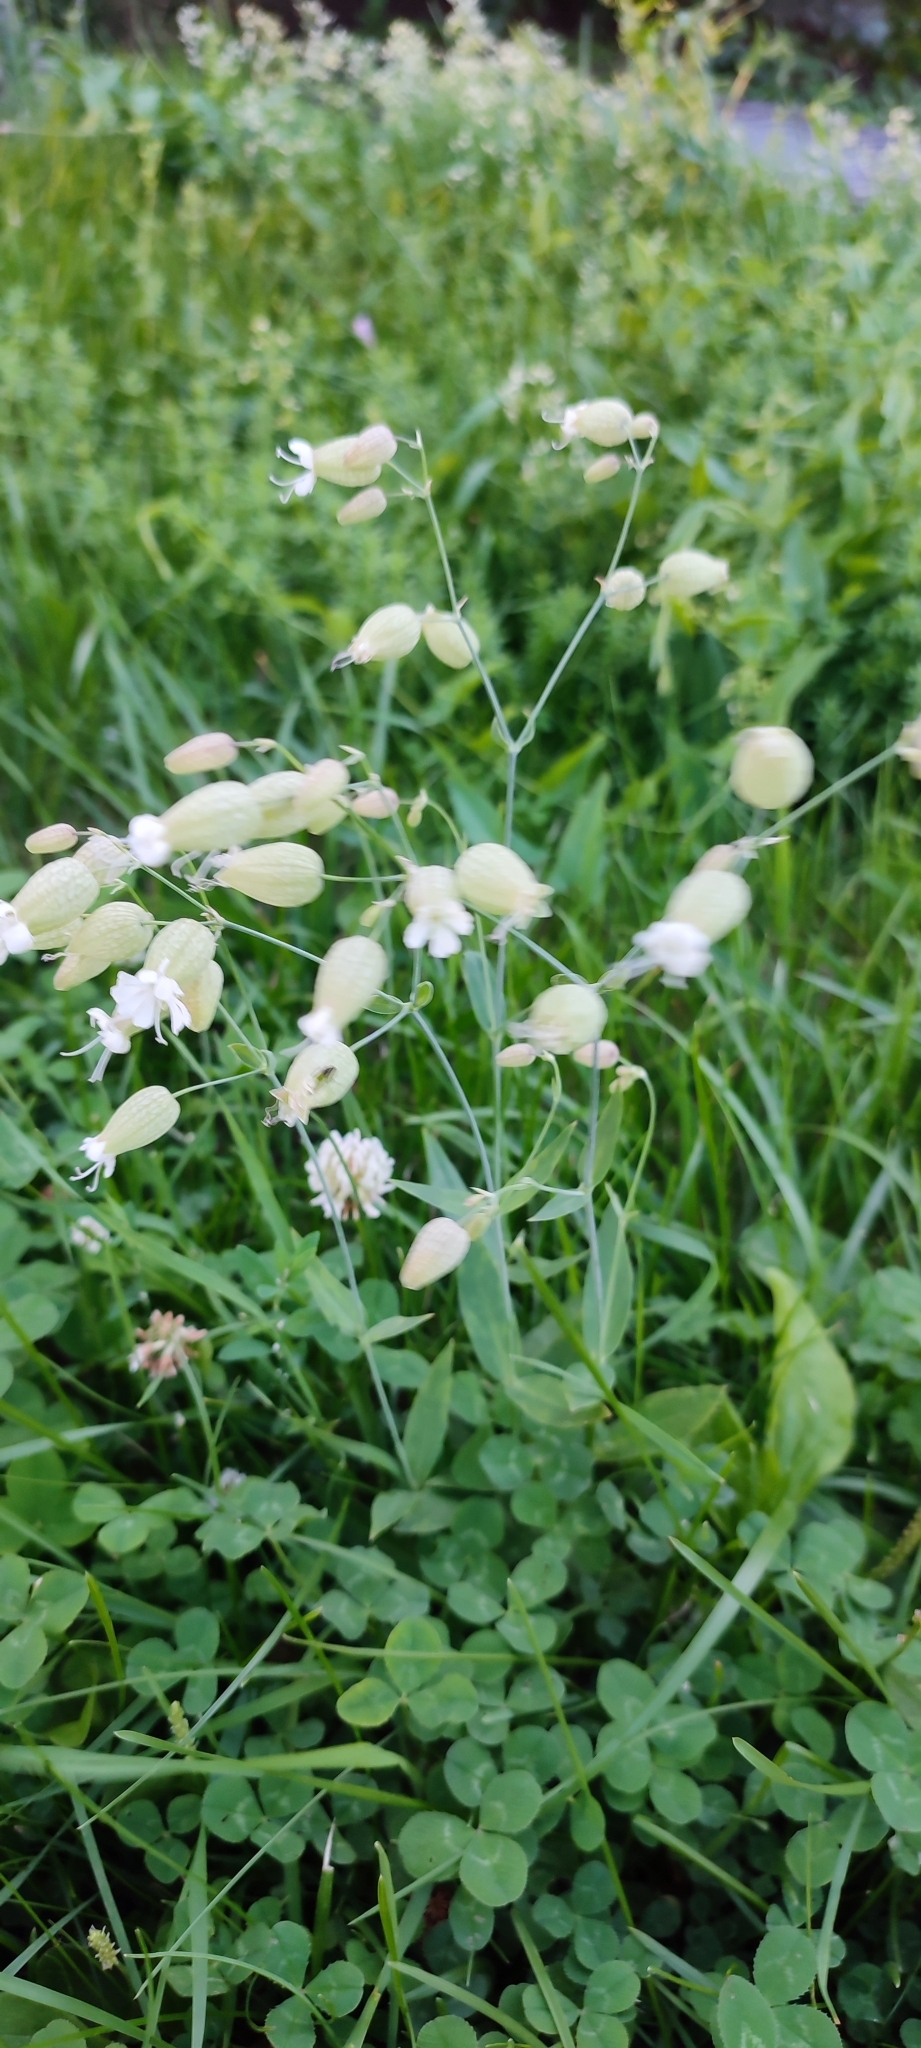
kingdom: Plantae
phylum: Tracheophyta
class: Magnoliopsida
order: Caryophyllales
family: Caryophyllaceae
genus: Silene
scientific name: Silene vulgaris
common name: Bladder campion
